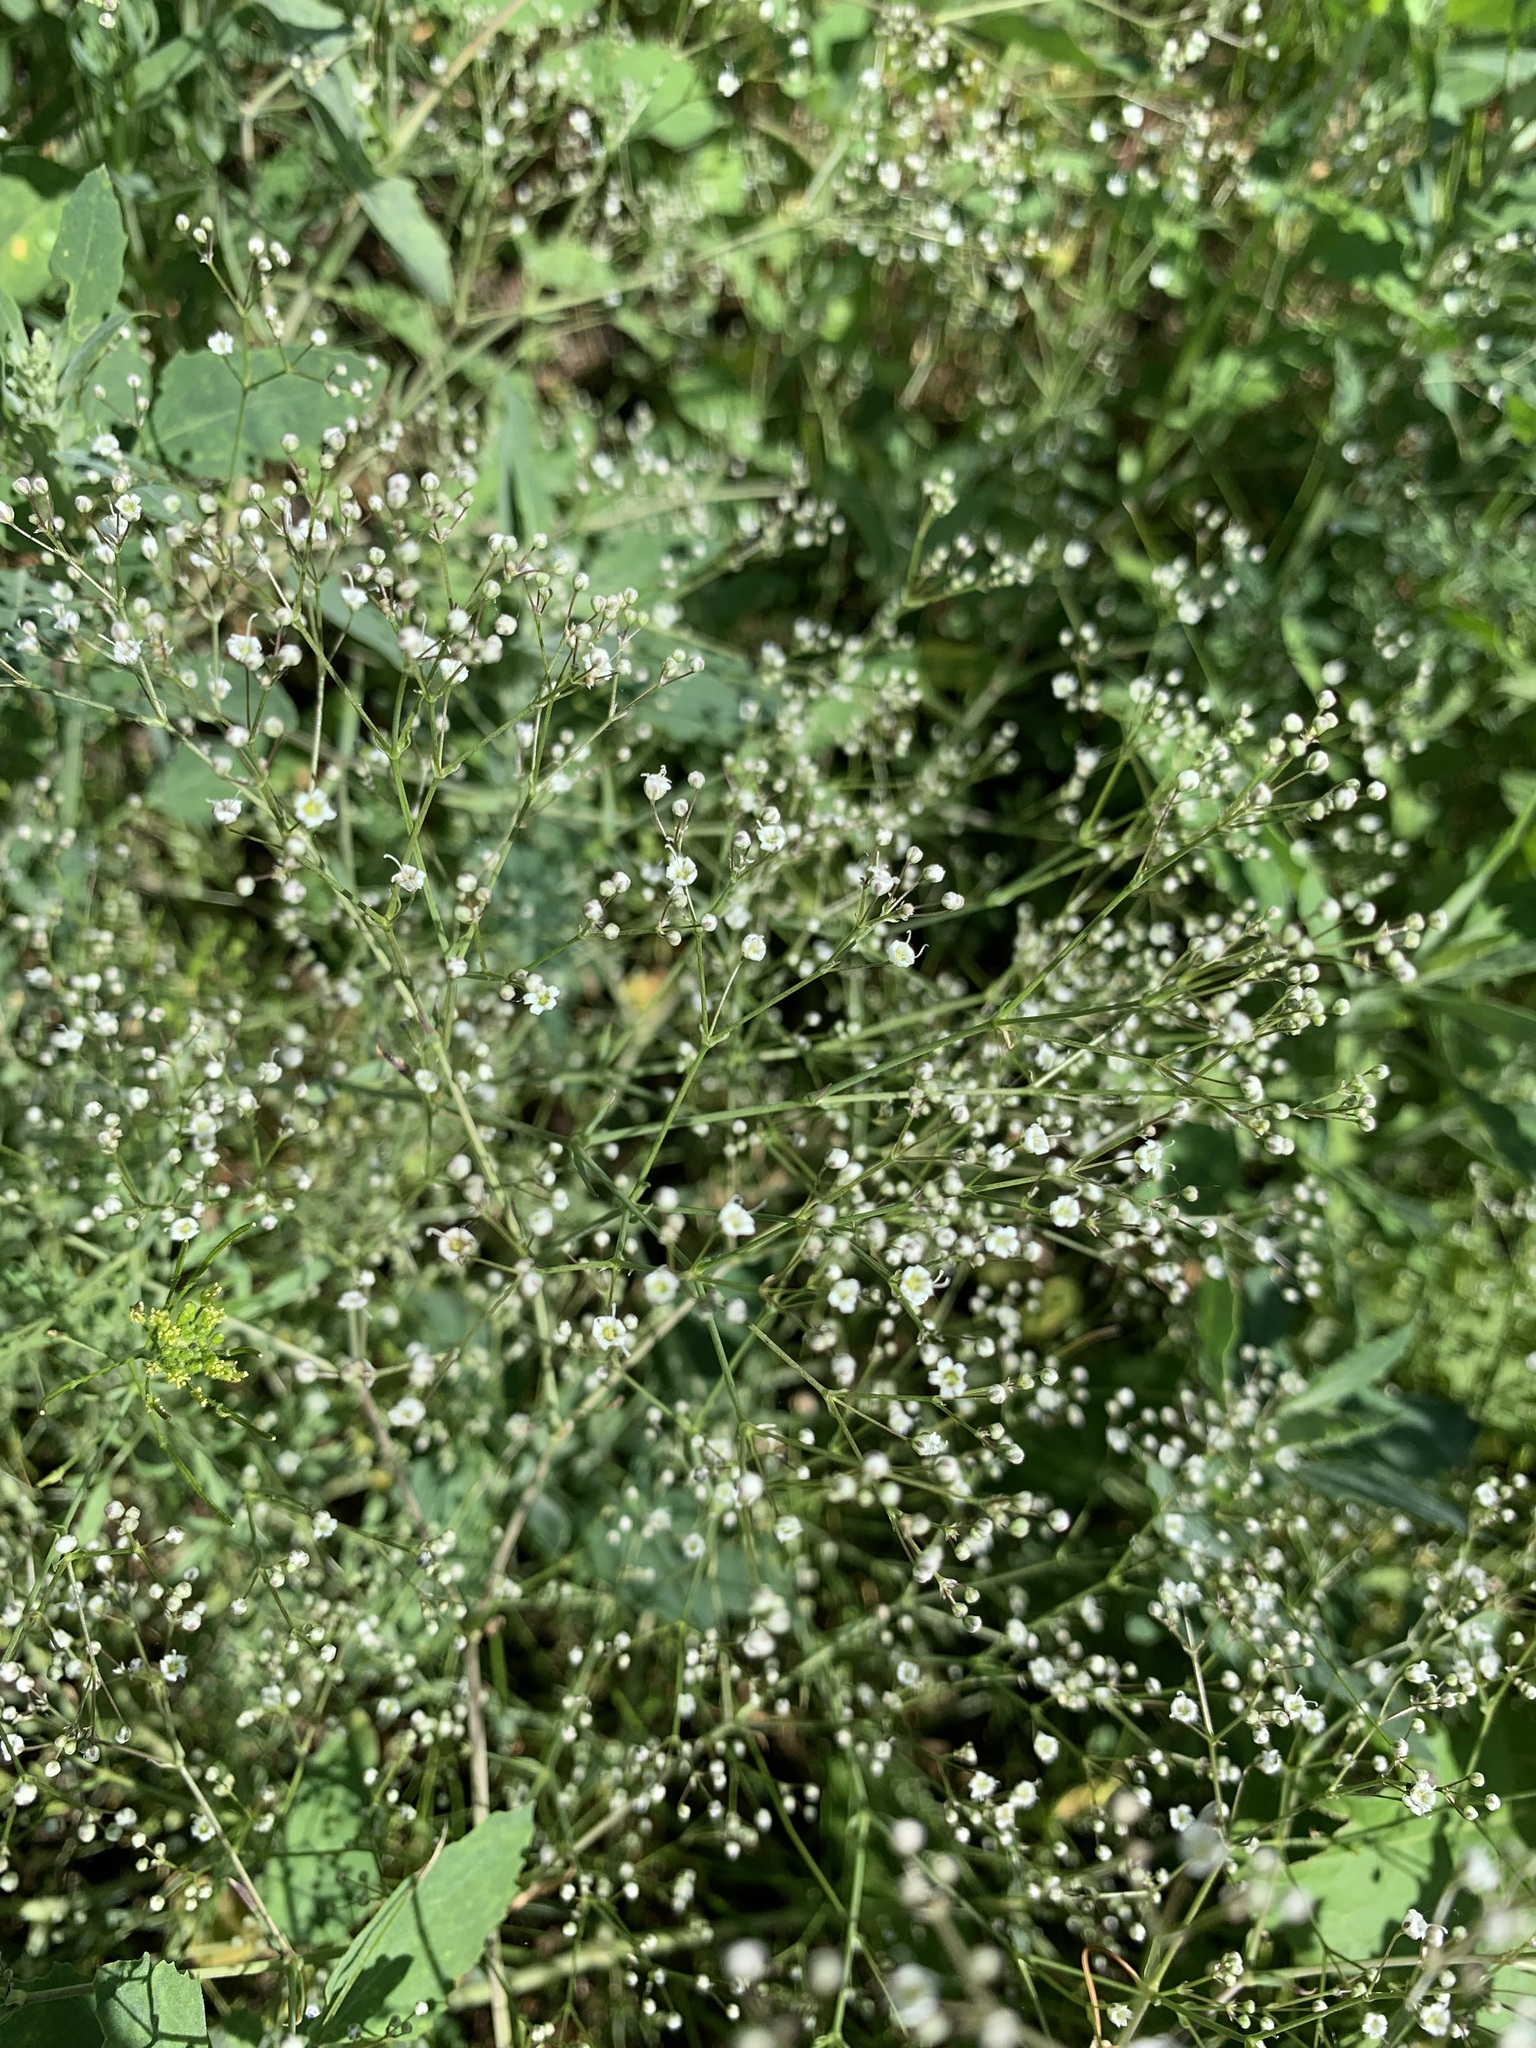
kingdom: Plantae
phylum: Tracheophyta
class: Magnoliopsida
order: Caryophyllales
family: Caryophyllaceae
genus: Gypsophila
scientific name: Gypsophila paniculata
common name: Baby's-breath
